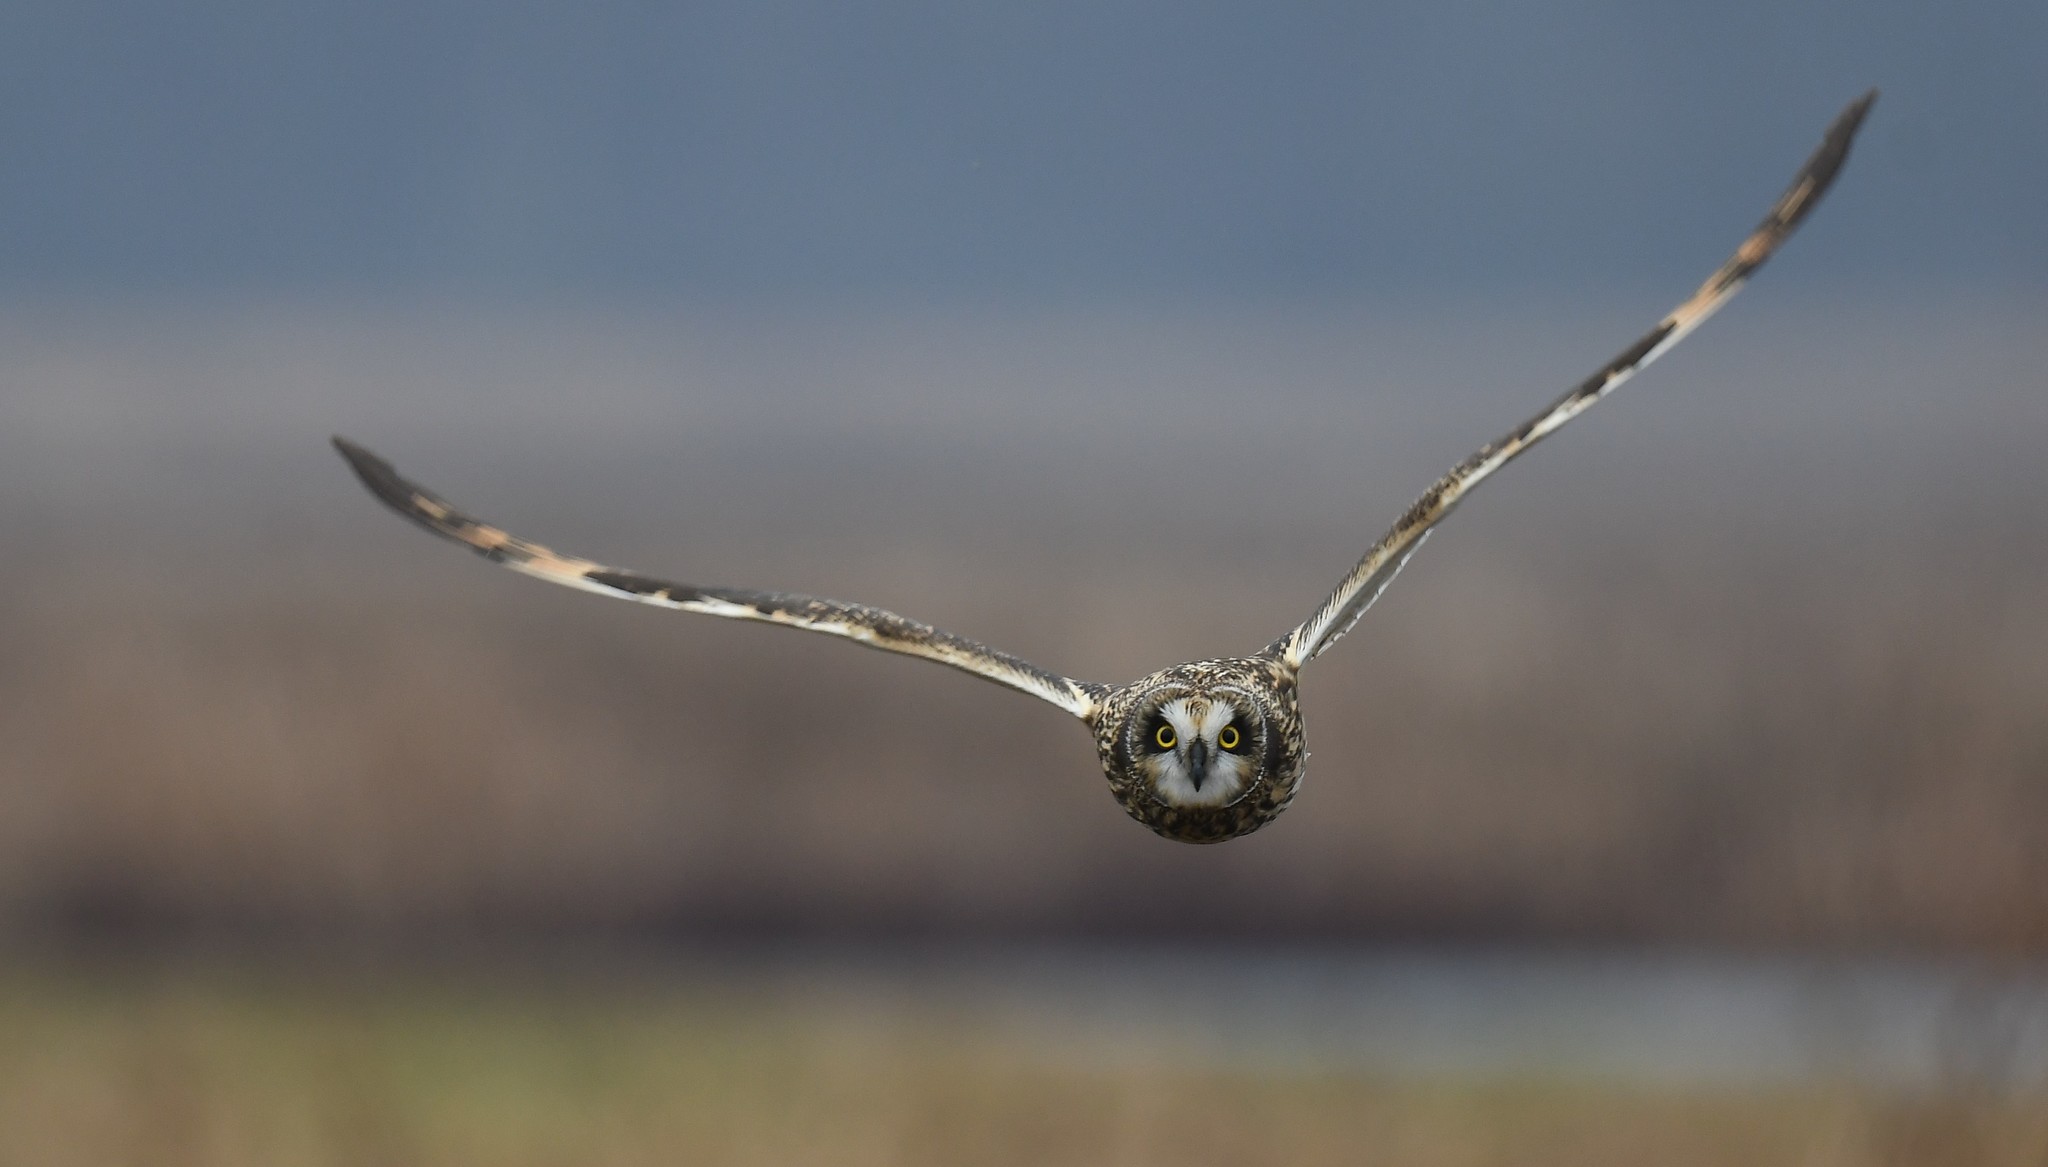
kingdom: Animalia
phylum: Chordata
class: Aves
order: Strigiformes
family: Strigidae
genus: Asio
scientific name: Asio flammeus
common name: Short-eared owl
